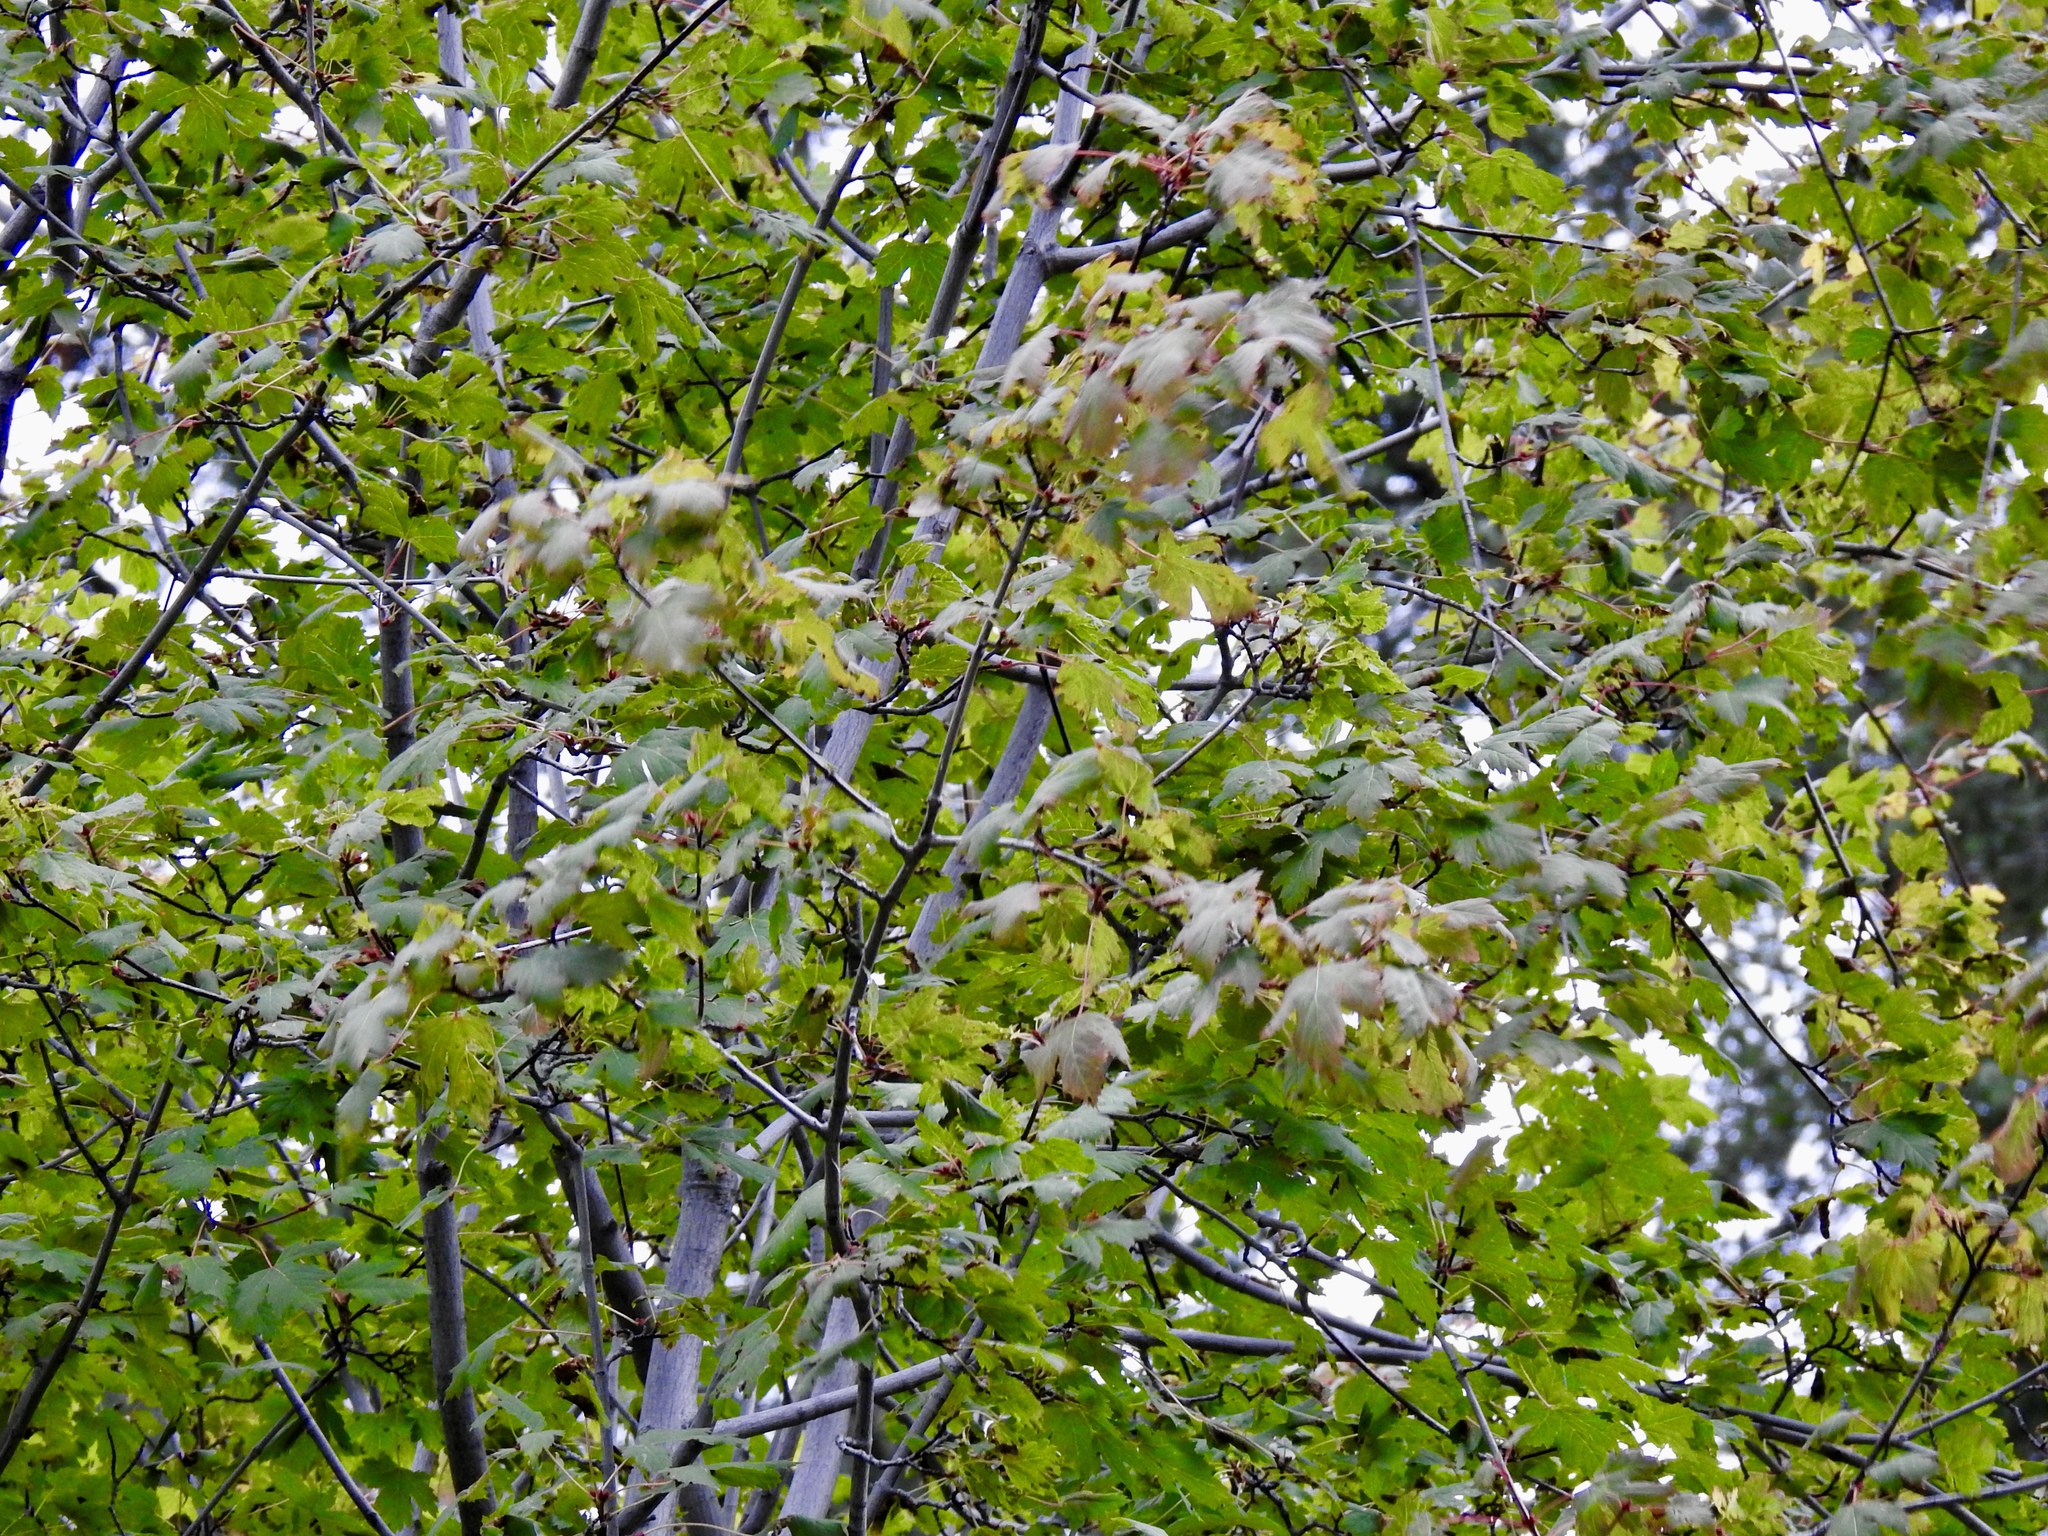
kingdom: Plantae
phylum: Tracheophyta
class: Magnoliopsida
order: Sapindales
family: Sapindaceae
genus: Acer
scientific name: Acer glabrum
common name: Rocky mountain maple
